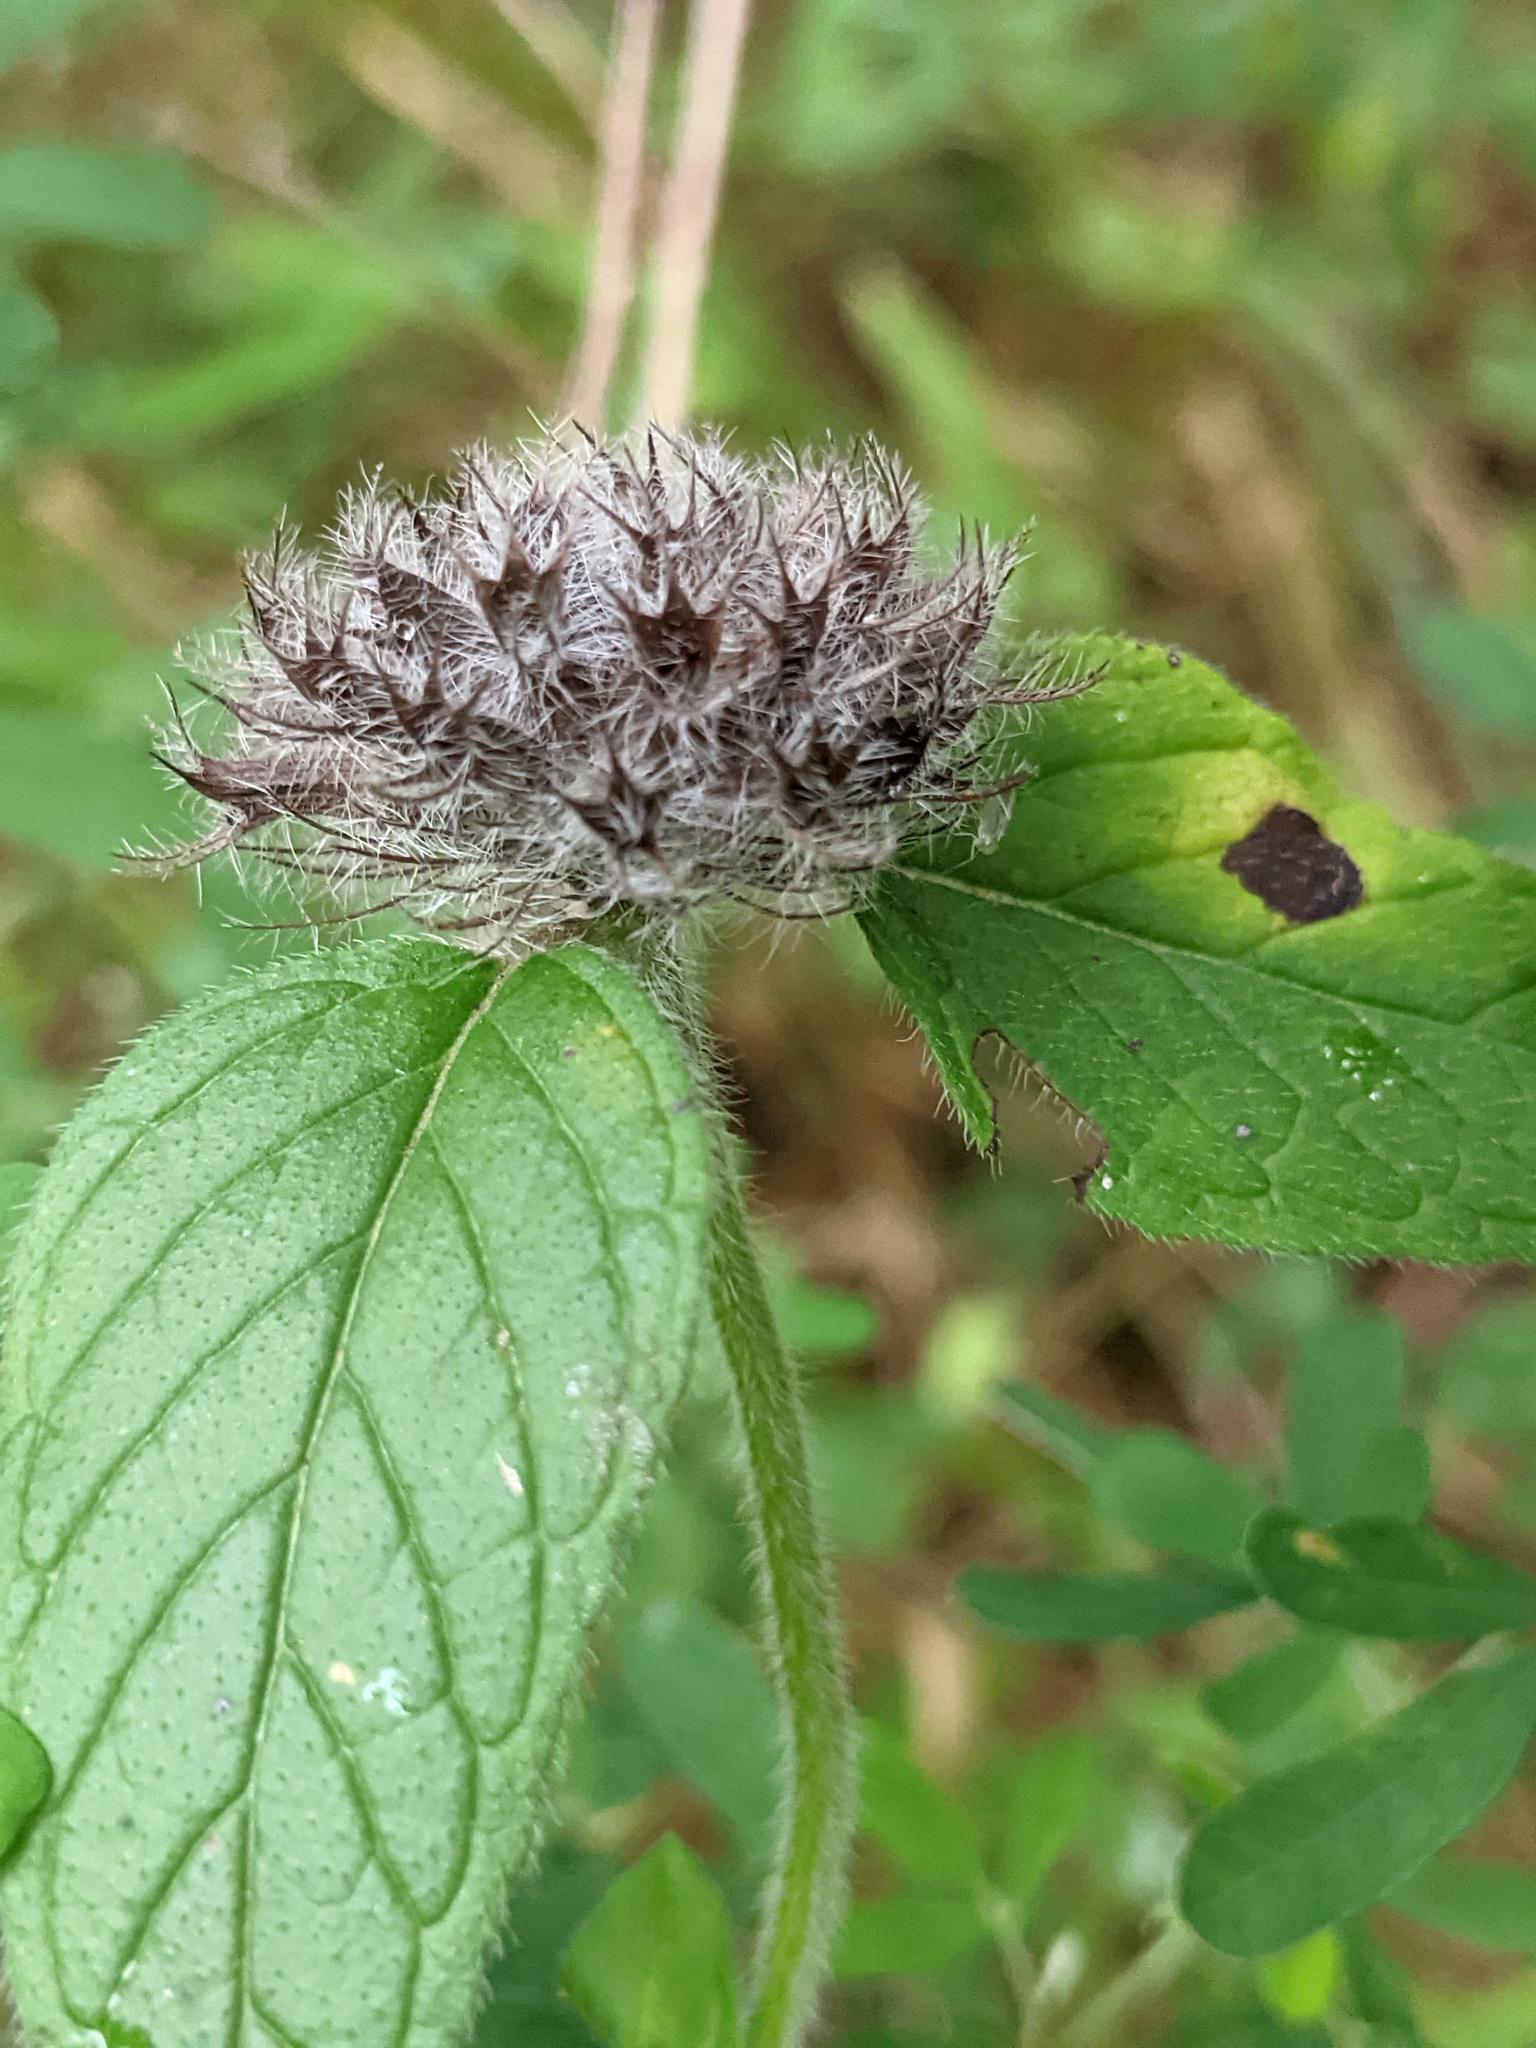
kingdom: Plantae
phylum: Tracheophyta
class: Magnoliopsida
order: Lamiales
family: Lamiaceae
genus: Clinopodium
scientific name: Clinopodium vulgare
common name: Wild basil
